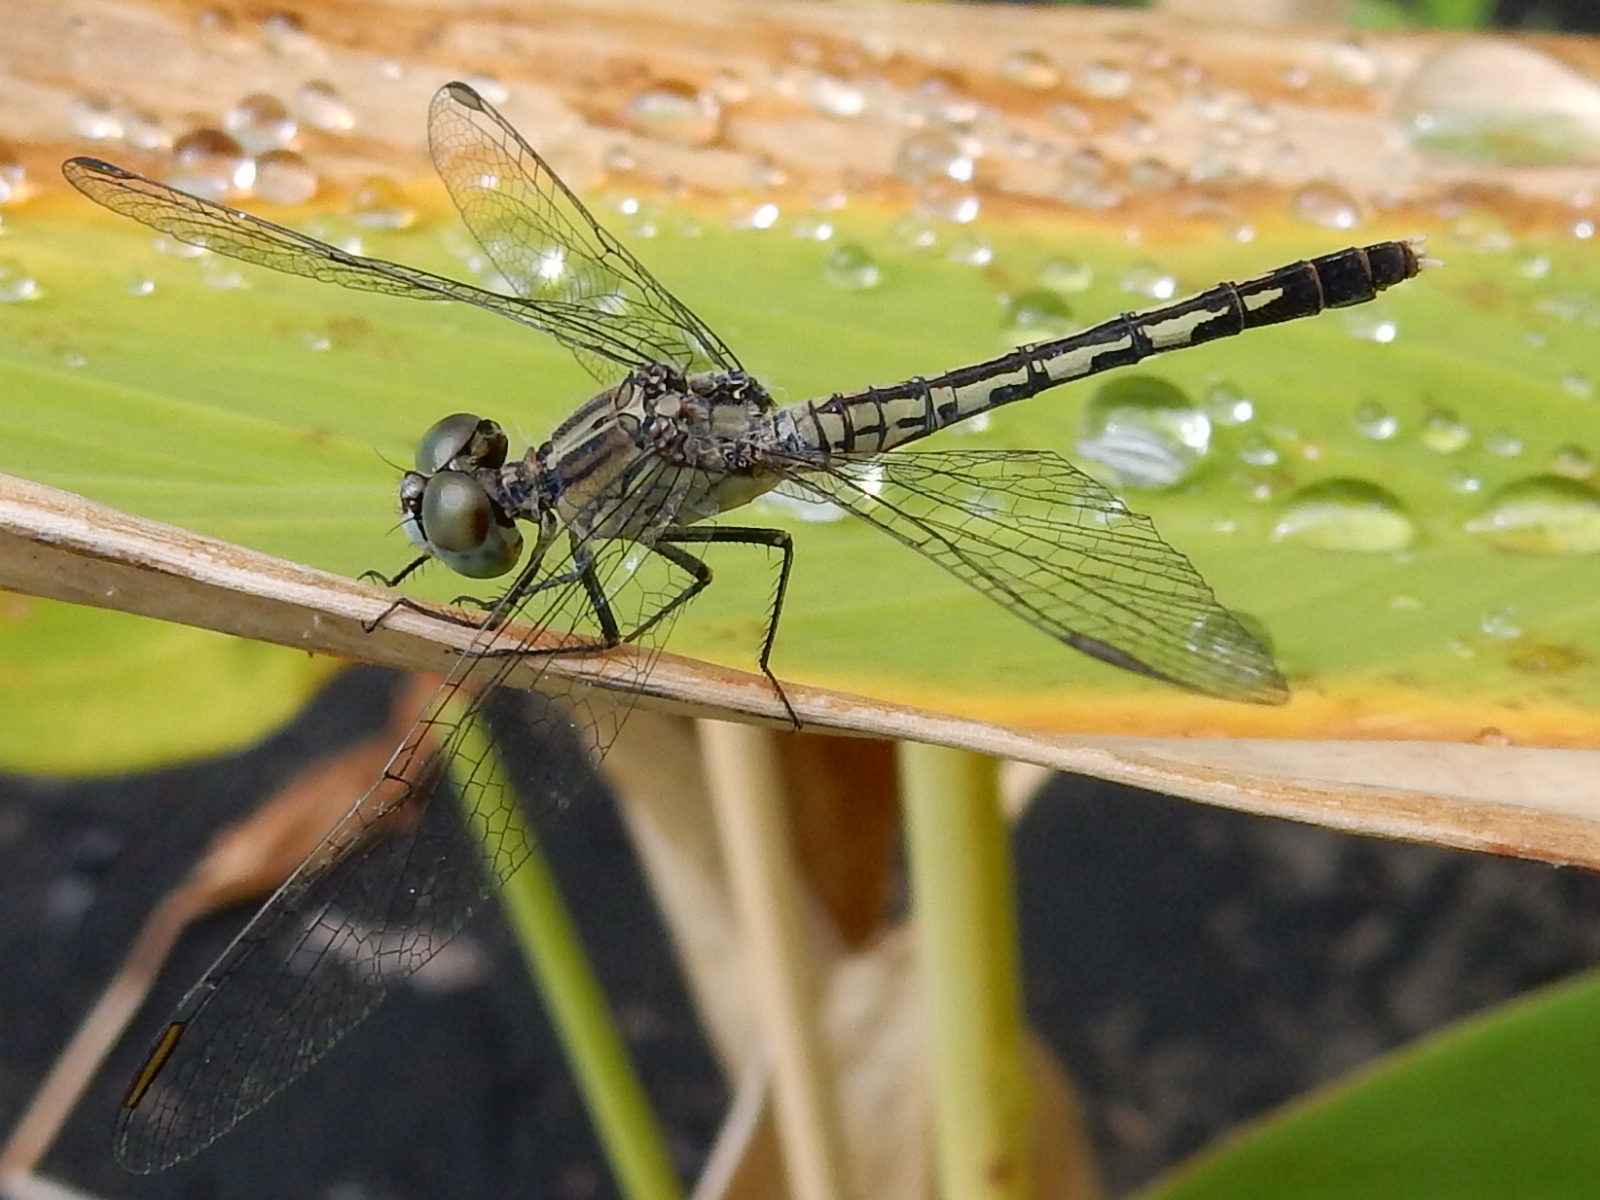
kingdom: Animalia
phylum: Arthropoda
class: Insecta
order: Odonata
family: Libellulidae
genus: Diplacodes
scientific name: Diplacodes trivialis
